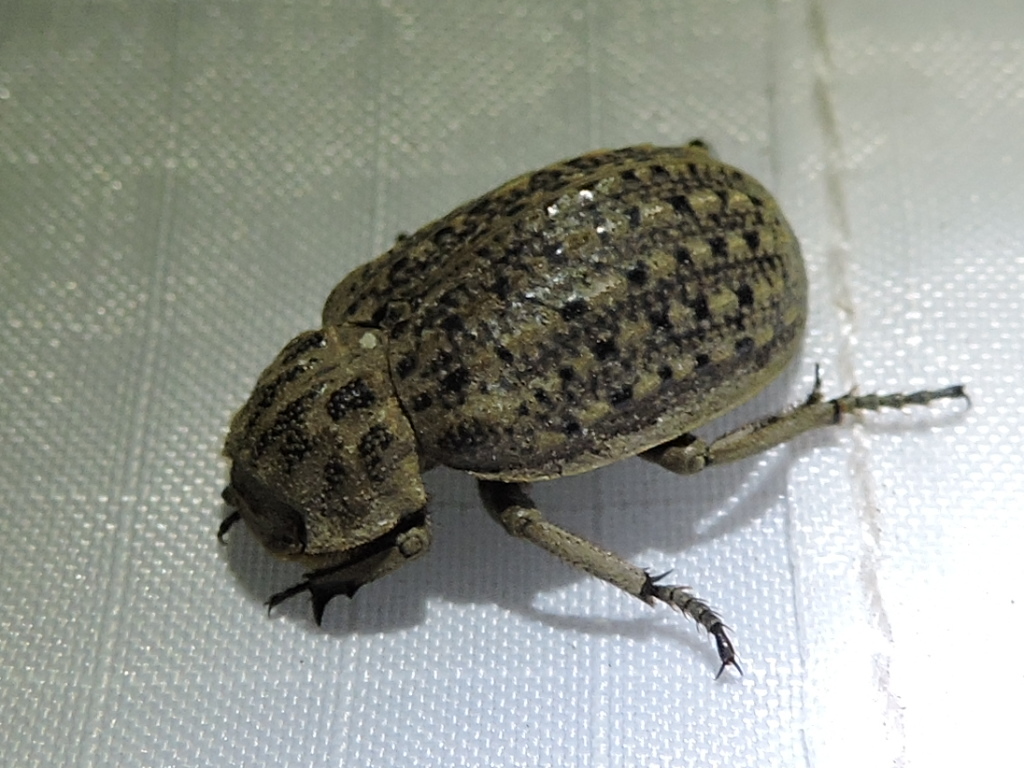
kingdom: Animalia
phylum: Arthropoda
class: Insecta
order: Coleoptera
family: Trogidae
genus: Omorgus
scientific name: Omorgus suberosus
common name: Hide beetle
